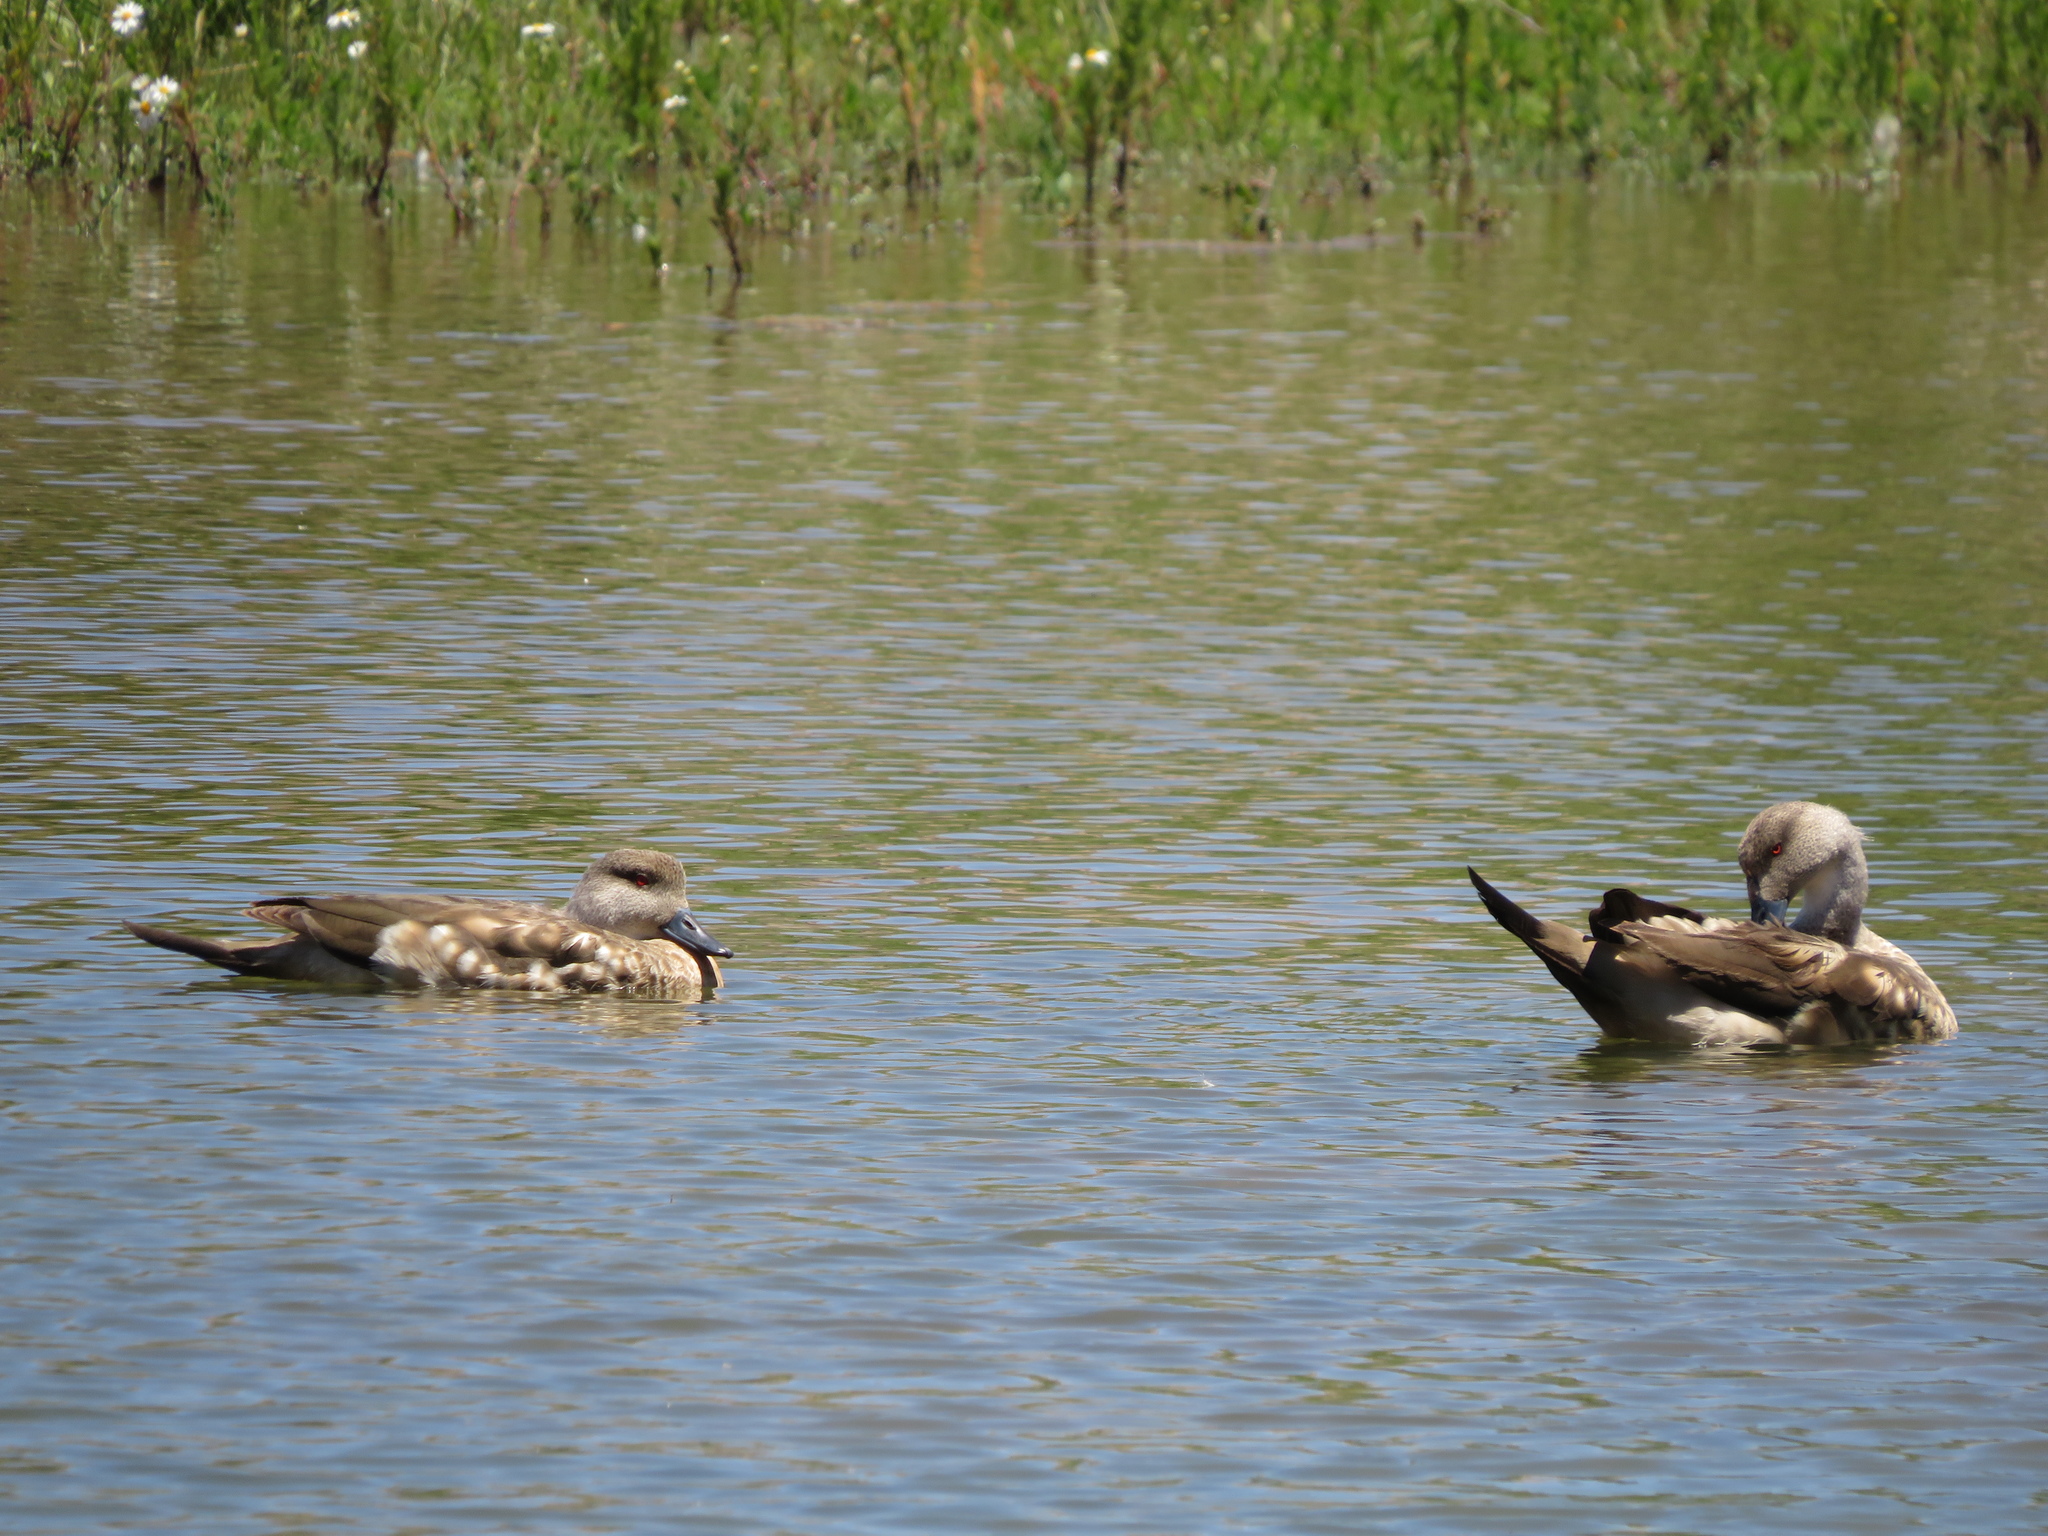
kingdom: Animalia
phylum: Chordata
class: Aves
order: Anseriformes
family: Anatidae
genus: Lophonetta
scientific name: Lophonetta specularioides
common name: Crested duck
